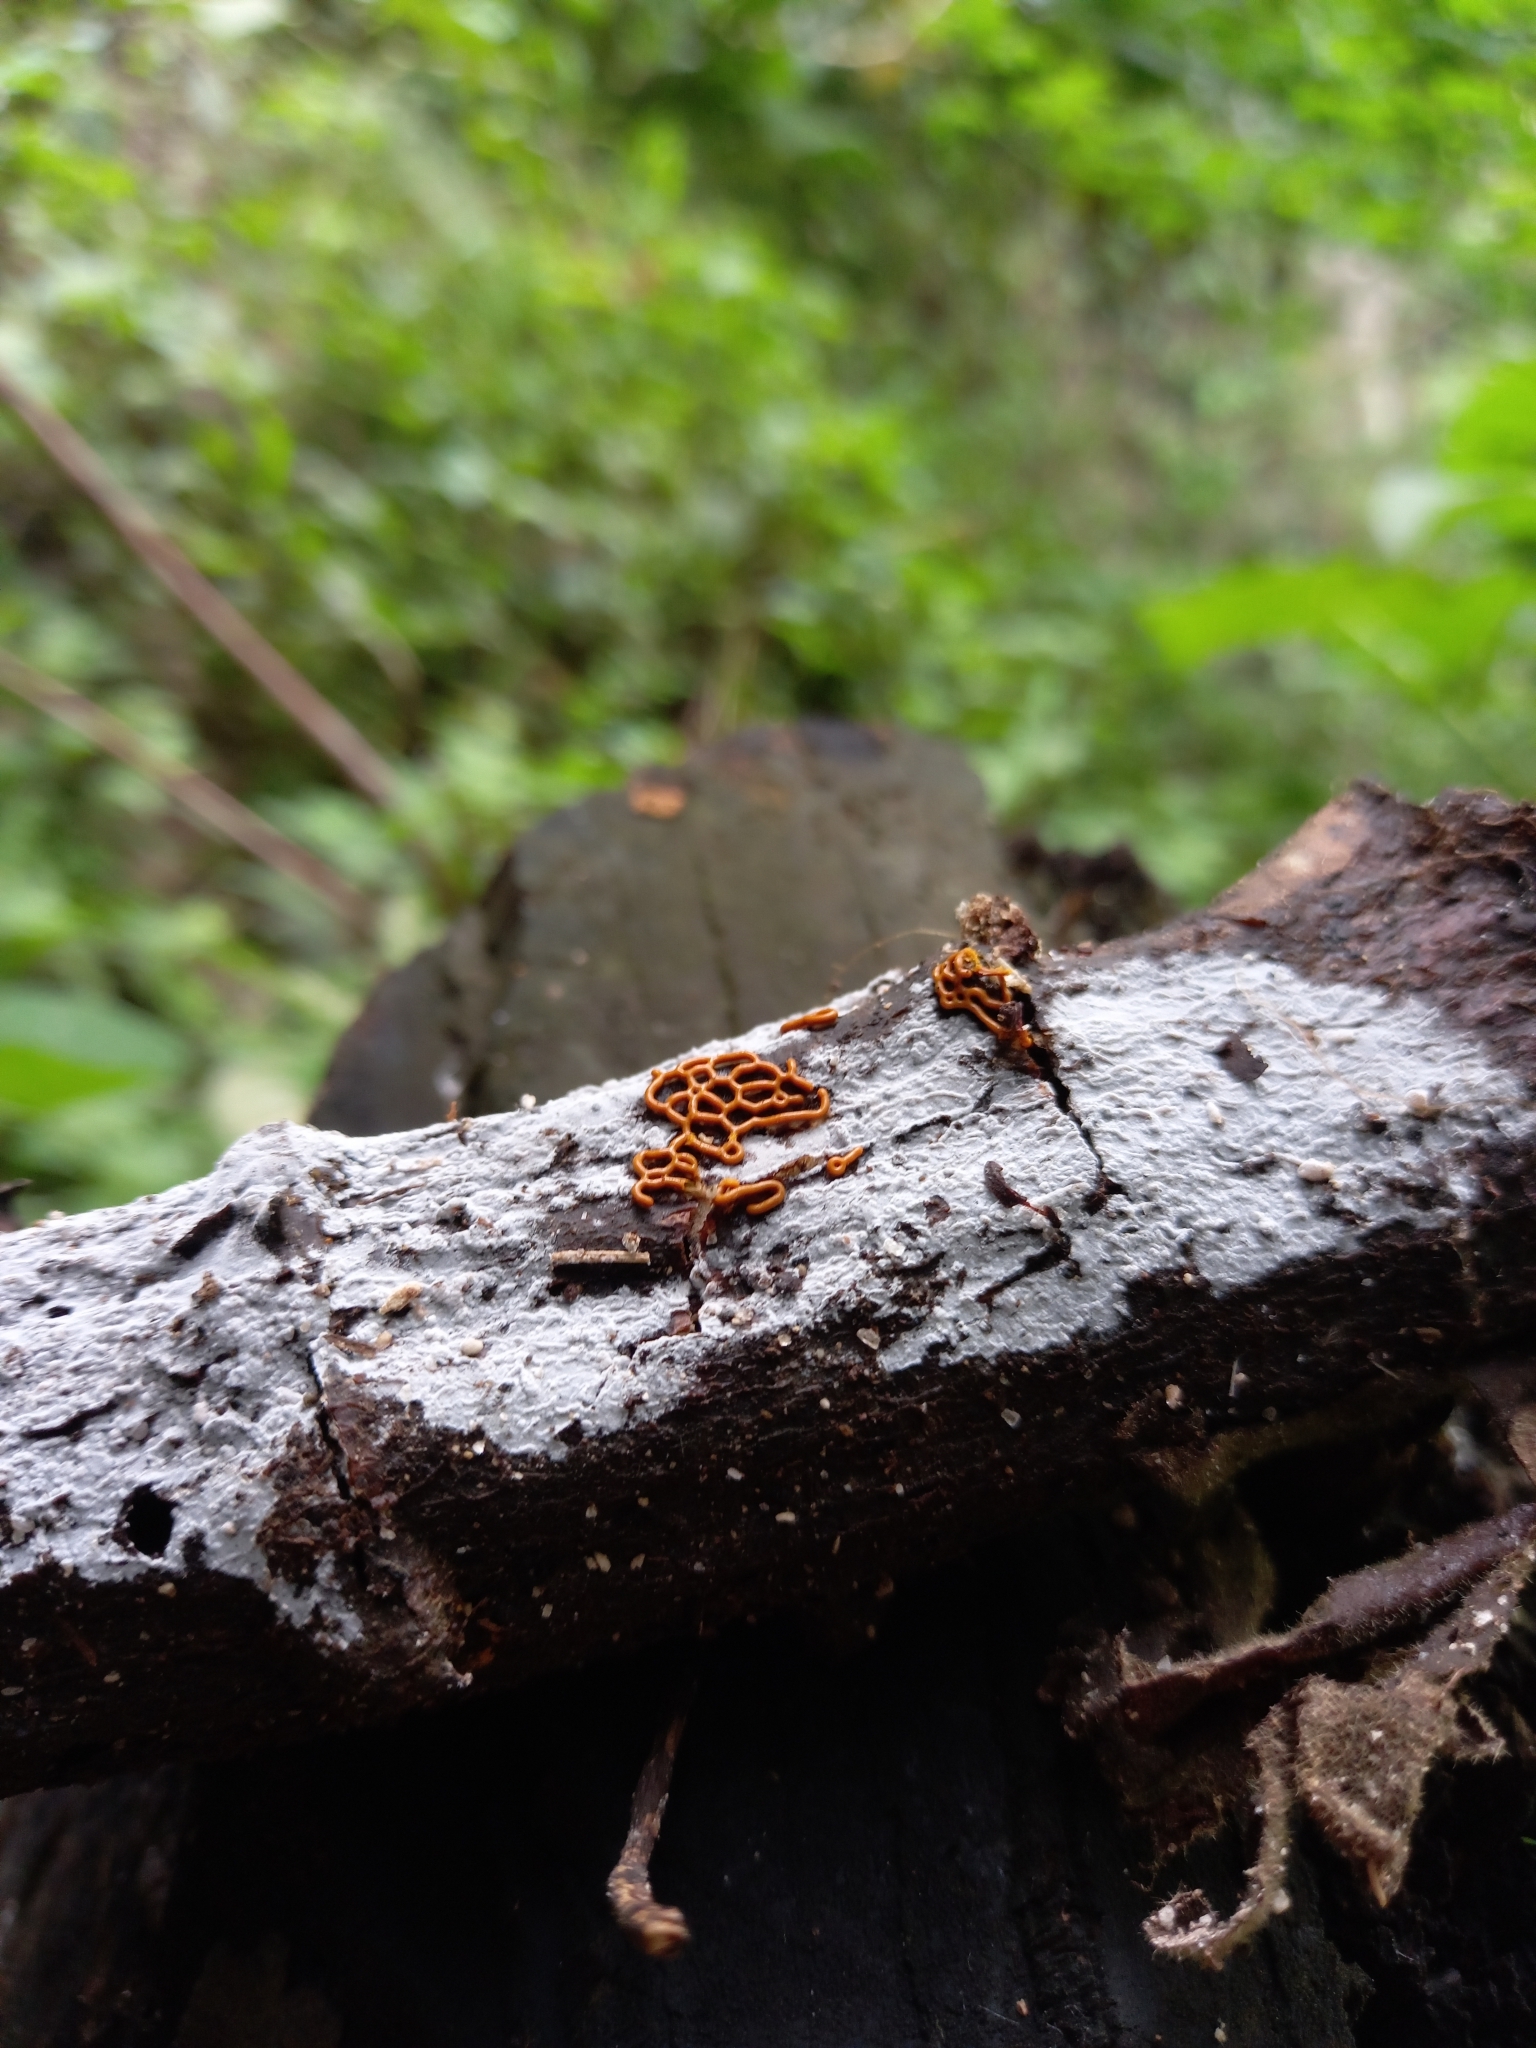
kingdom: Protozoa
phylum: Mycetozoa
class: Myxomycetes
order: Trichiales
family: Arcyriaceae
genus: Hemitrichia
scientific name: Hemitrichia serpula
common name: Pretzel slime mold
